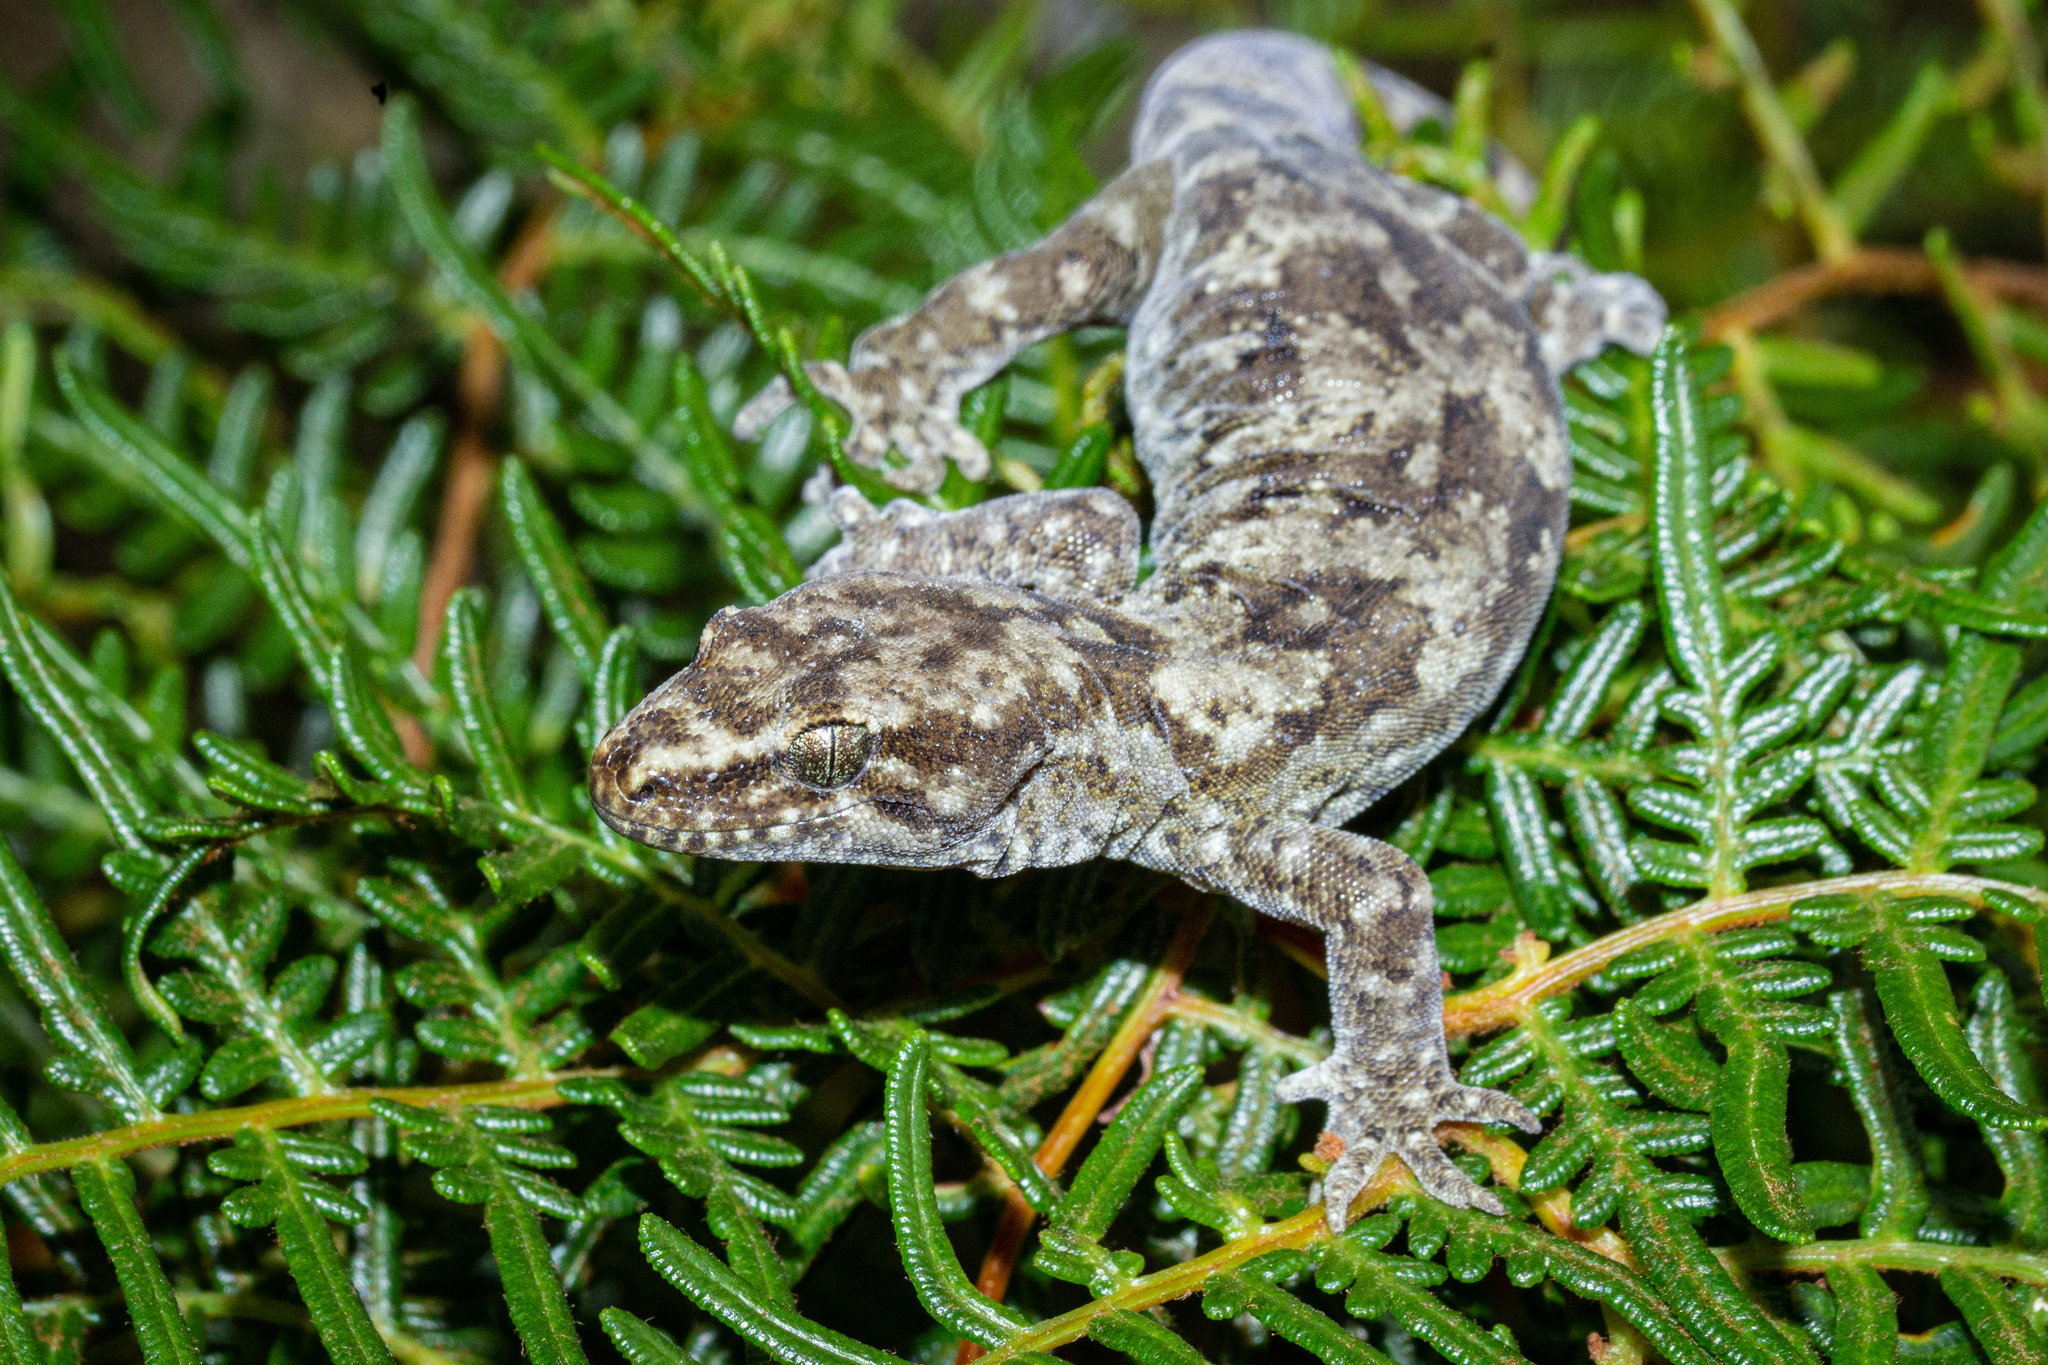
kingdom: Animalia
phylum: Chordata
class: Squamata
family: Diplodactylidae
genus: Woodworthia
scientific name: Woodworthia
